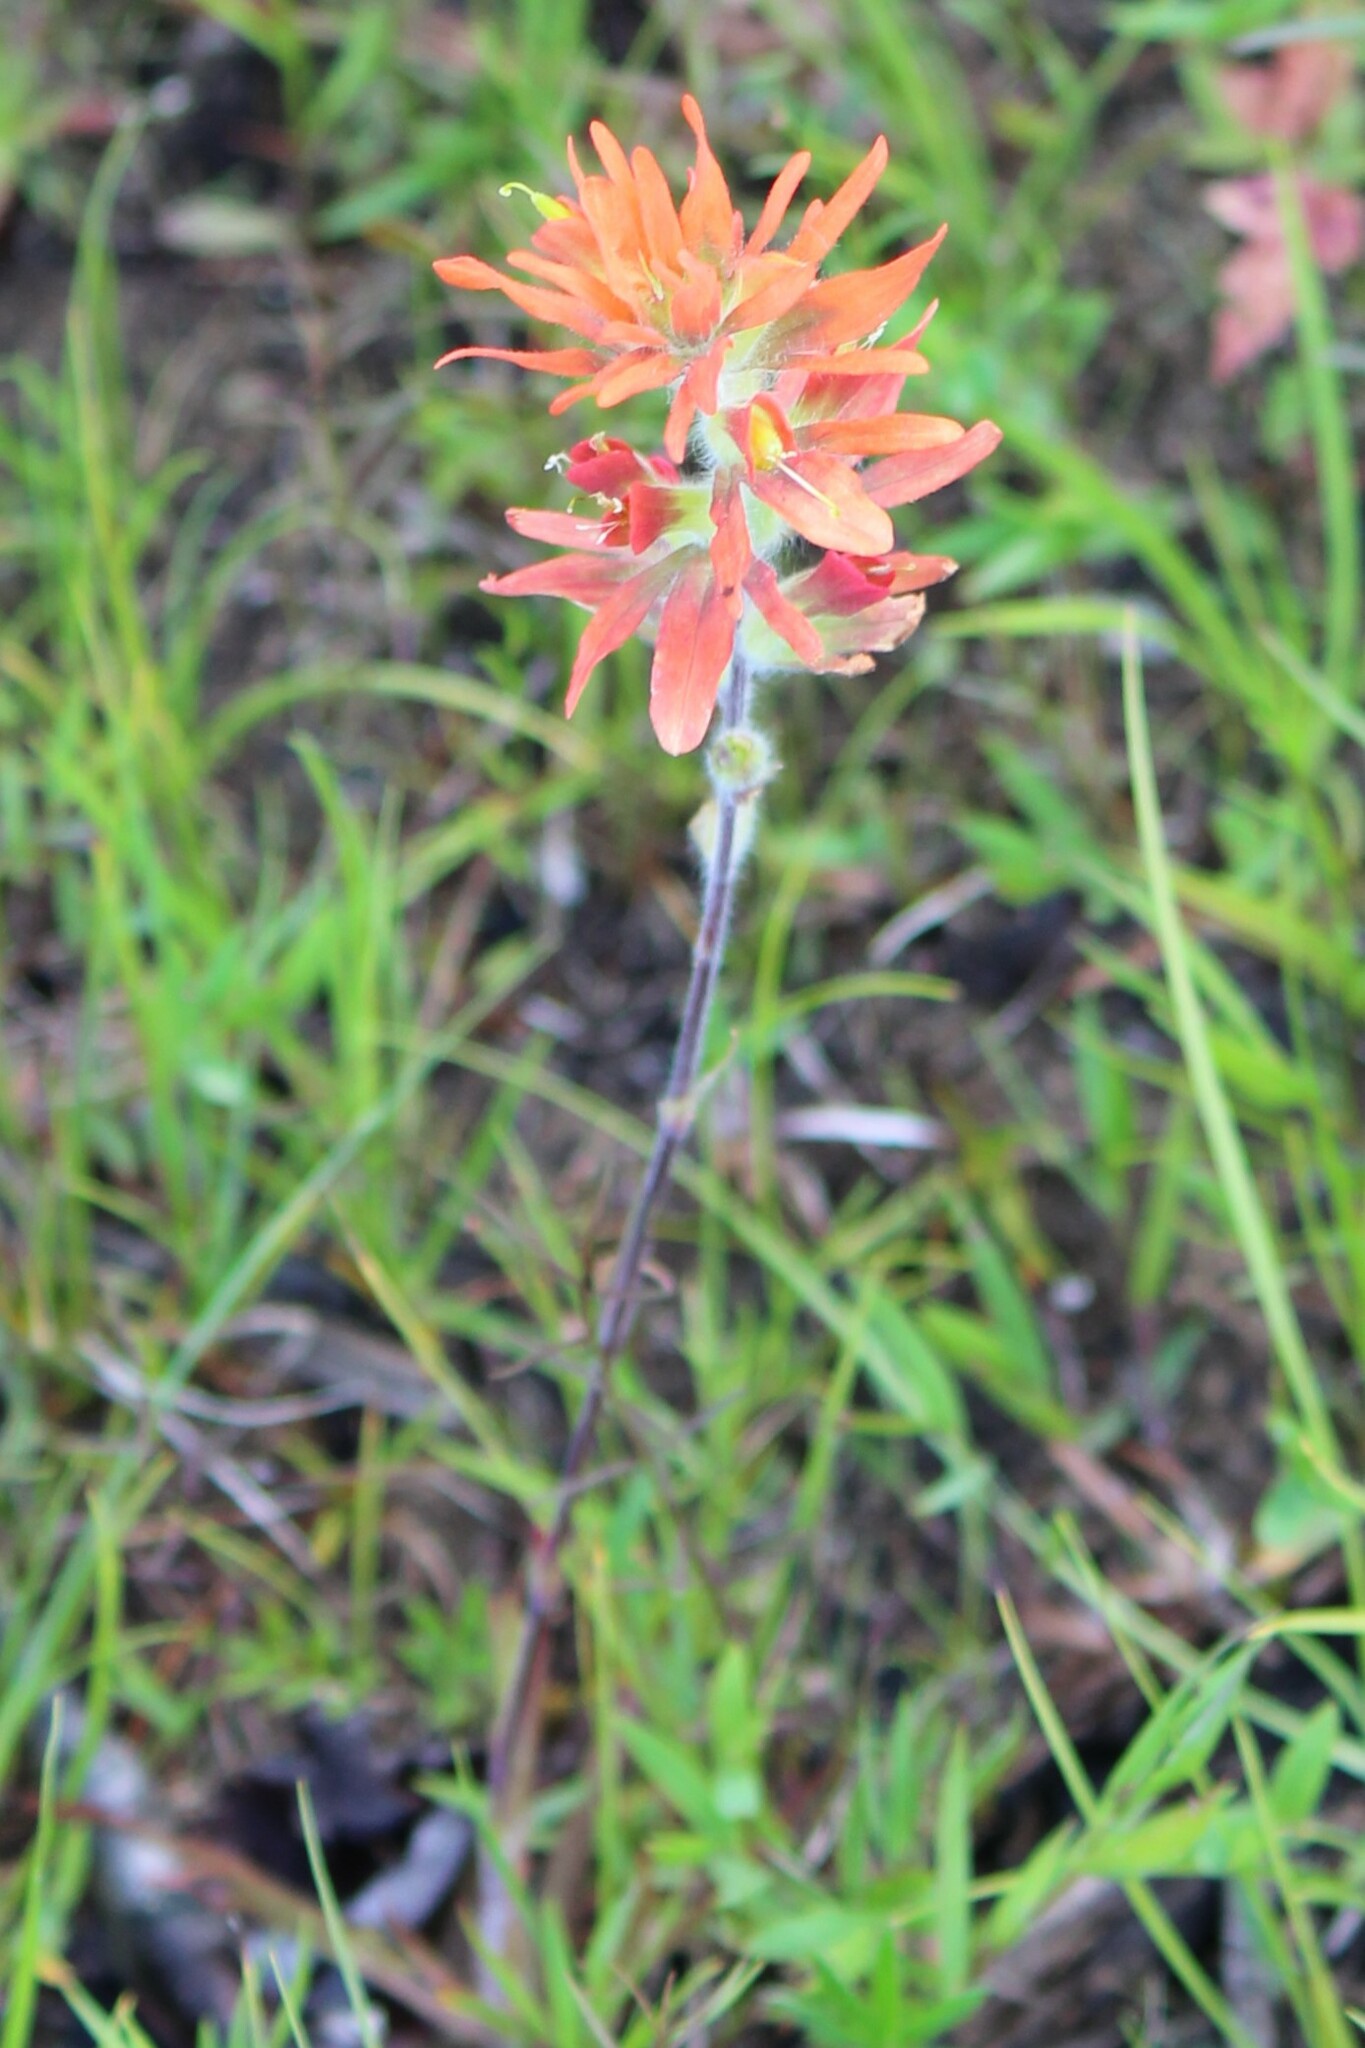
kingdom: Plantae
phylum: Tracheophyta
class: Magnoliopsida
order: Lamiales
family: Orobanchaceae
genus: Castilleja
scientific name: Castilleja coccinea
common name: Scarlet paintbrush
